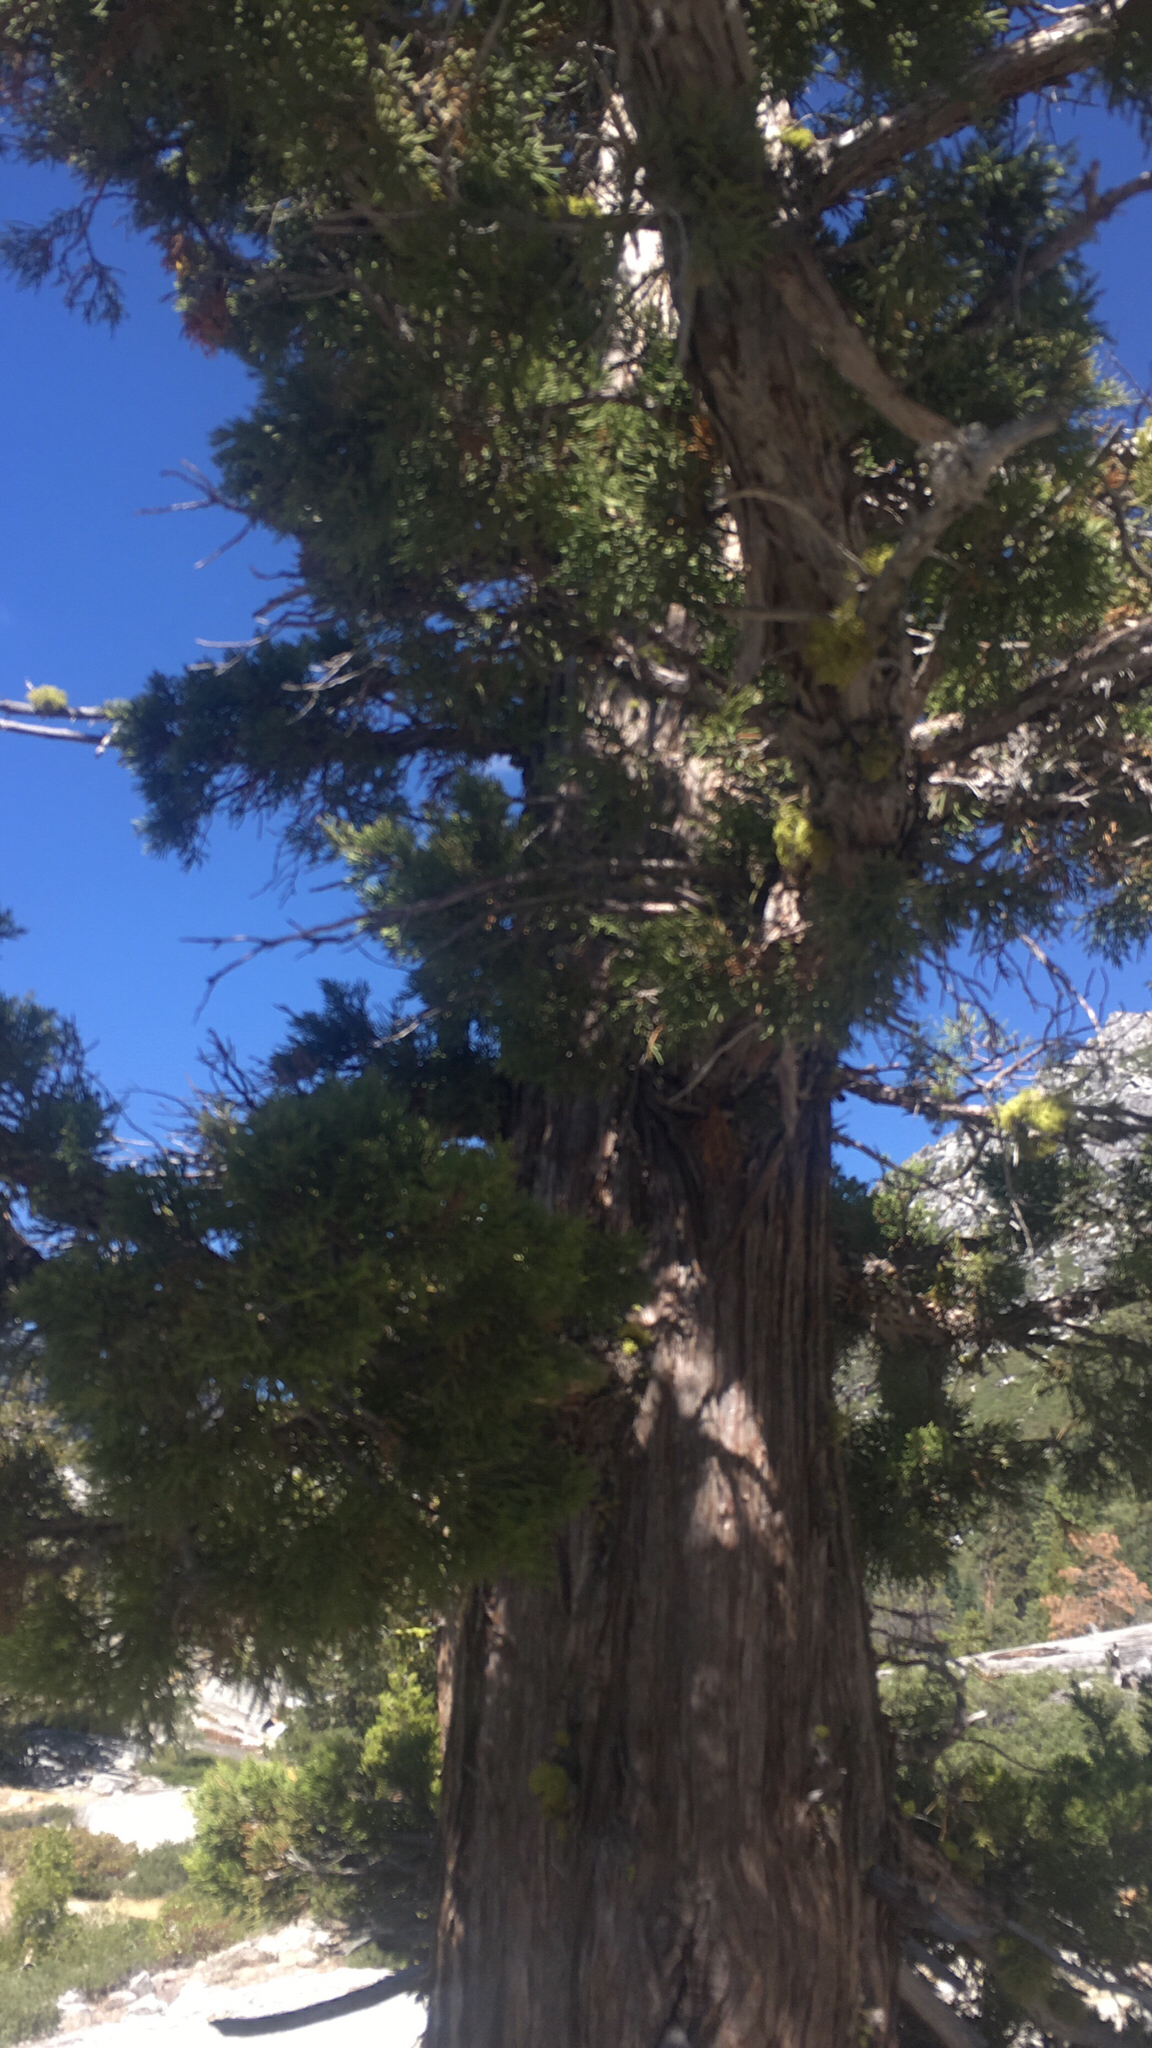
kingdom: Plantae
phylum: Tracheophyta
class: Pinopsida
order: Pinales
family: Cupressaceae
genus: Juniperus
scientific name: Juniperus occidentalis
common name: Western juniper
